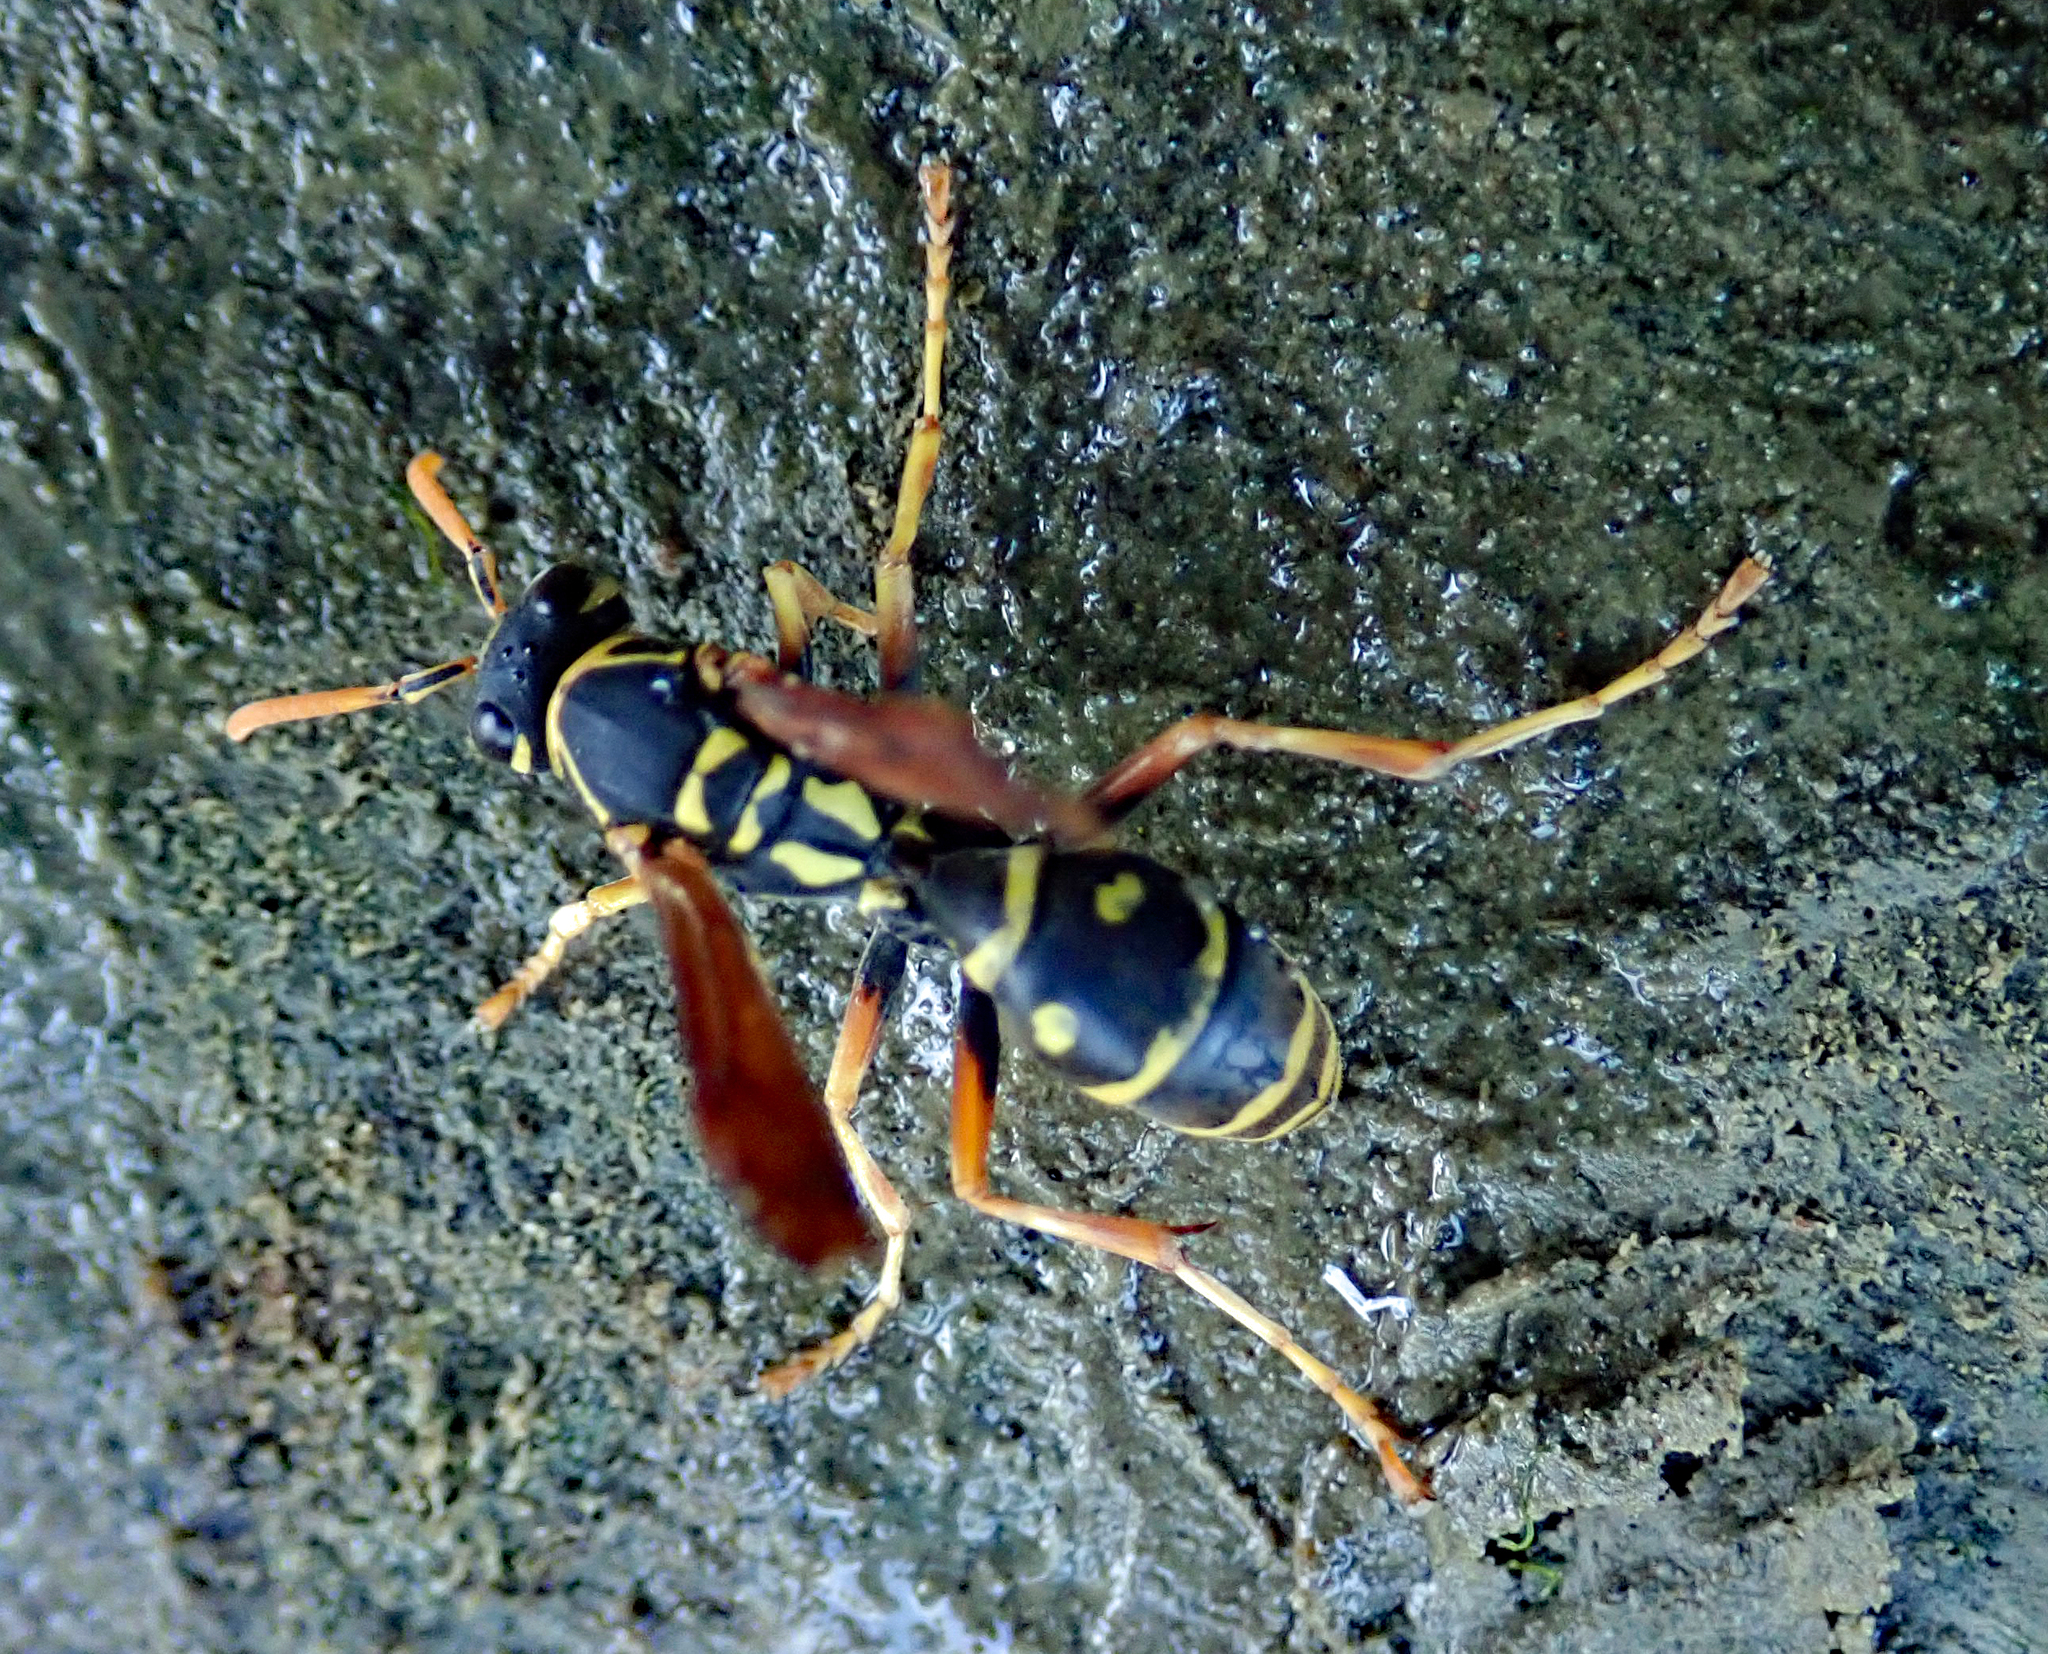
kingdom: Animalia
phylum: Arthropoda
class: Insecta
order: Hymenoptera
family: Eumenidae
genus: Polistes
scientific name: Polistes chinensis
